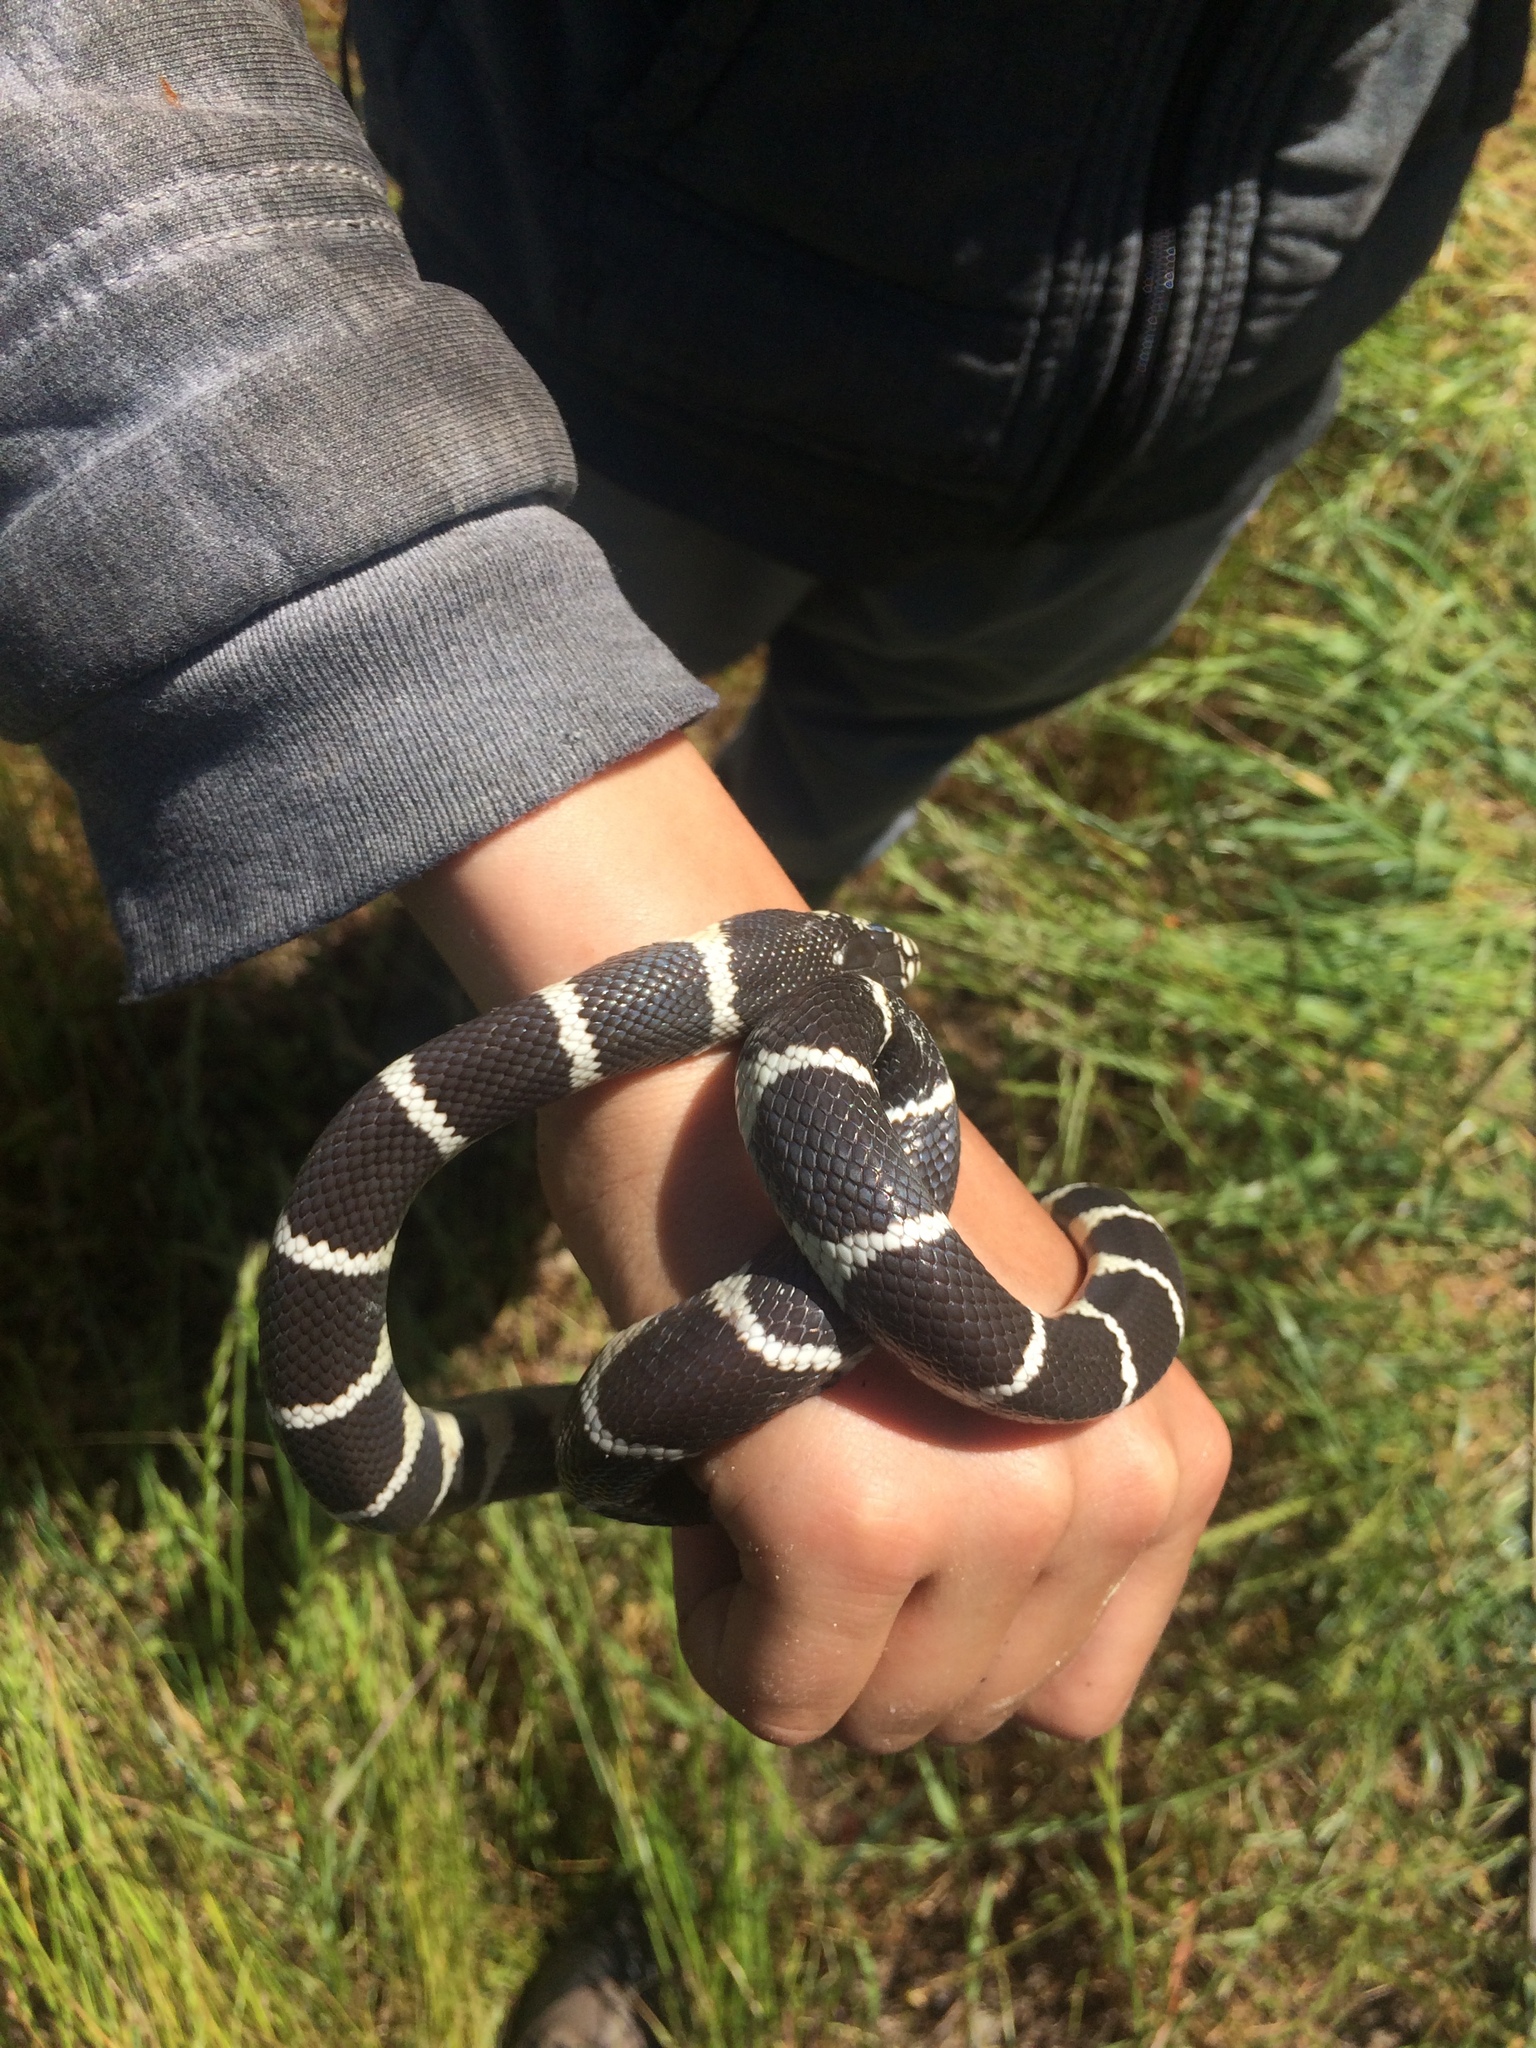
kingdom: Animalia
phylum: Chordata
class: Squamata
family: Colubridae
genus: Lampropeltis
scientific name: Lampropeltis californiae
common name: California kingsnake
